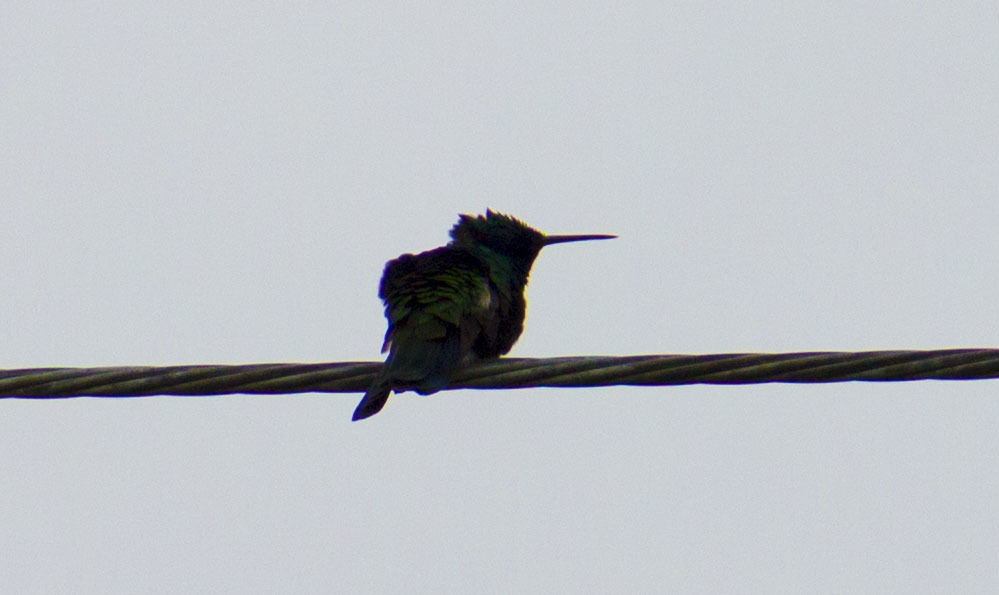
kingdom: Animalia
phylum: Chordata
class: Aves
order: Apodiformes
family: Trochilidae
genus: Colibri
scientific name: Colibri coruscans
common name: Sparkling violetear
